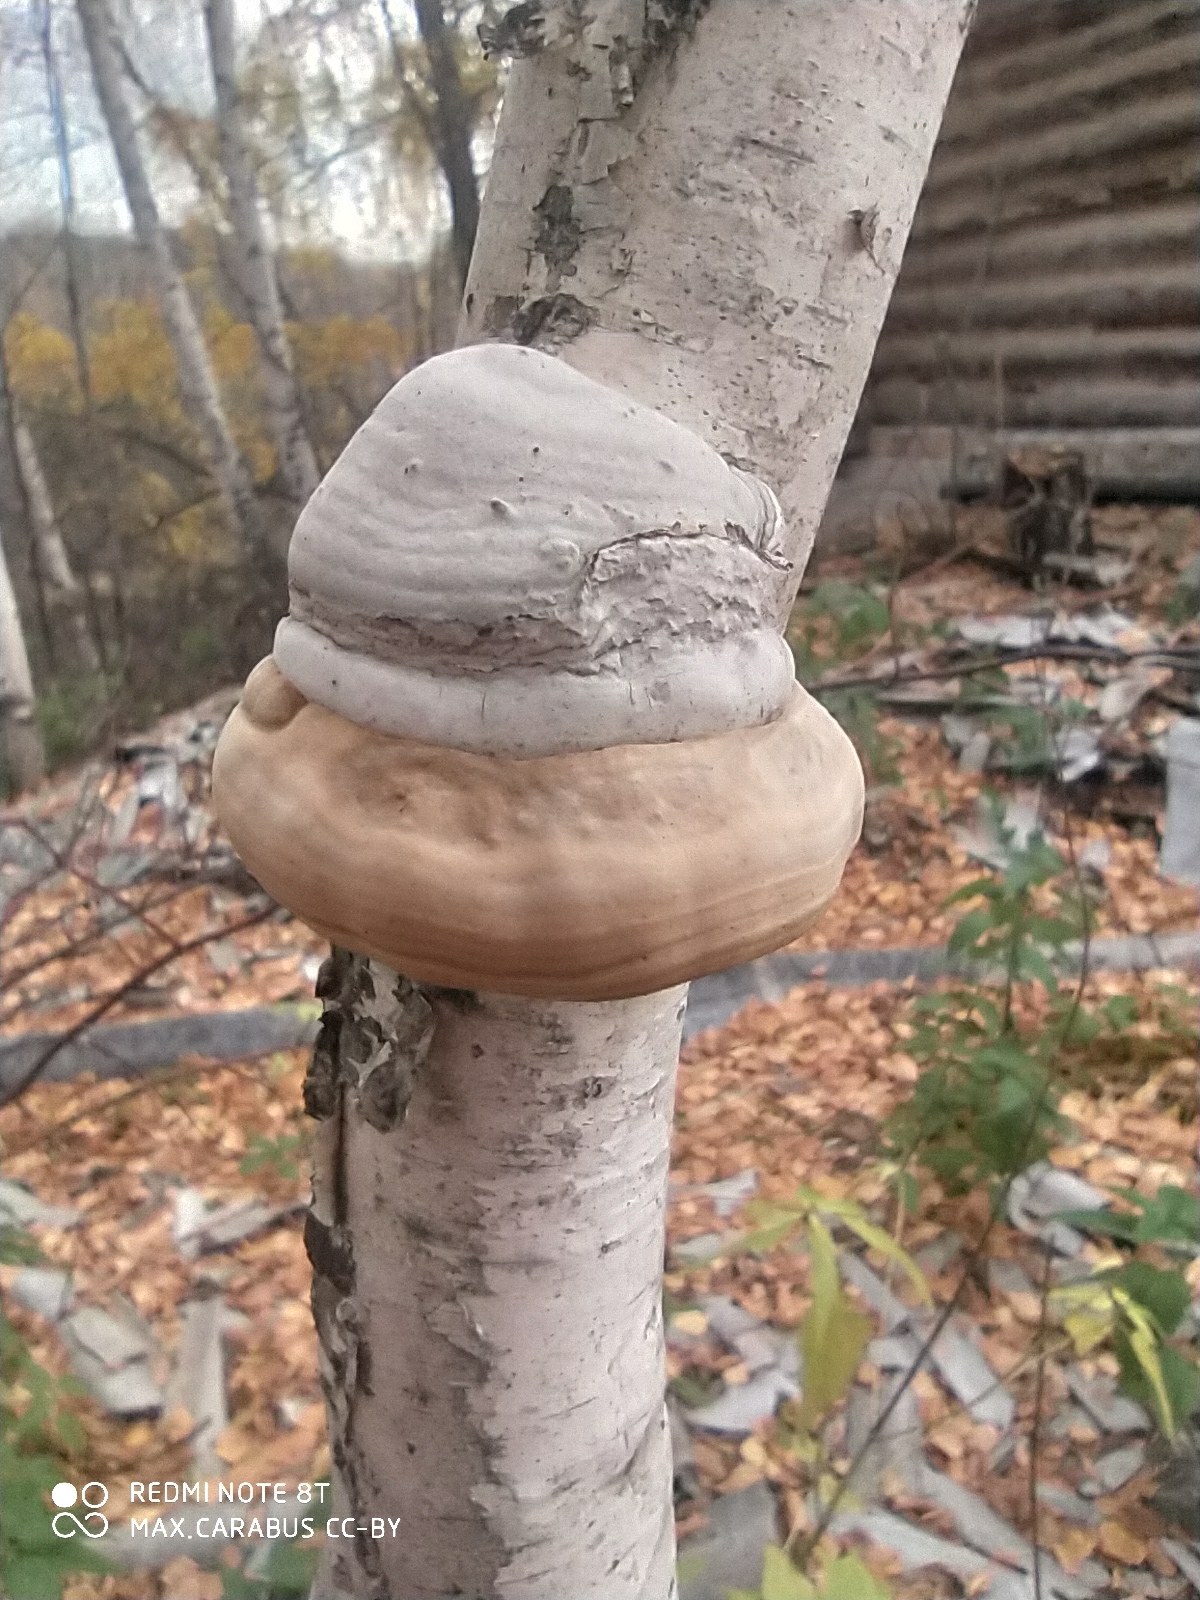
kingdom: Fungi
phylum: Basidiomycota
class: Agaricomycetes
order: Polyporales
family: Polyporaceae
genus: Fomes
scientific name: Fomes fomentarius
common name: Hoof fungus
